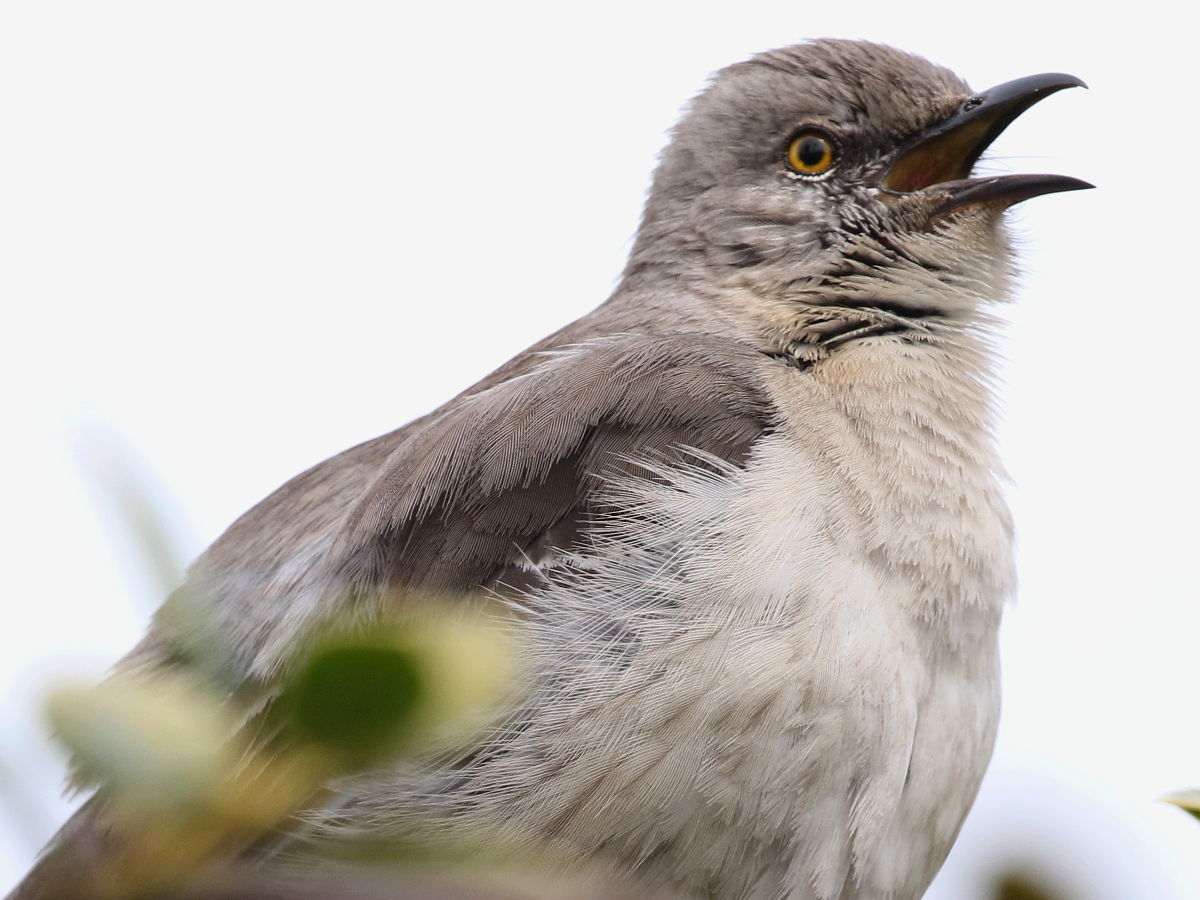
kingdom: Animalia
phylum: Chordata
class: Aves
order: Passeriformes
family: Mimidae
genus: Mimus
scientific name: Mimus polyglottos
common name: Northern mockingbird
